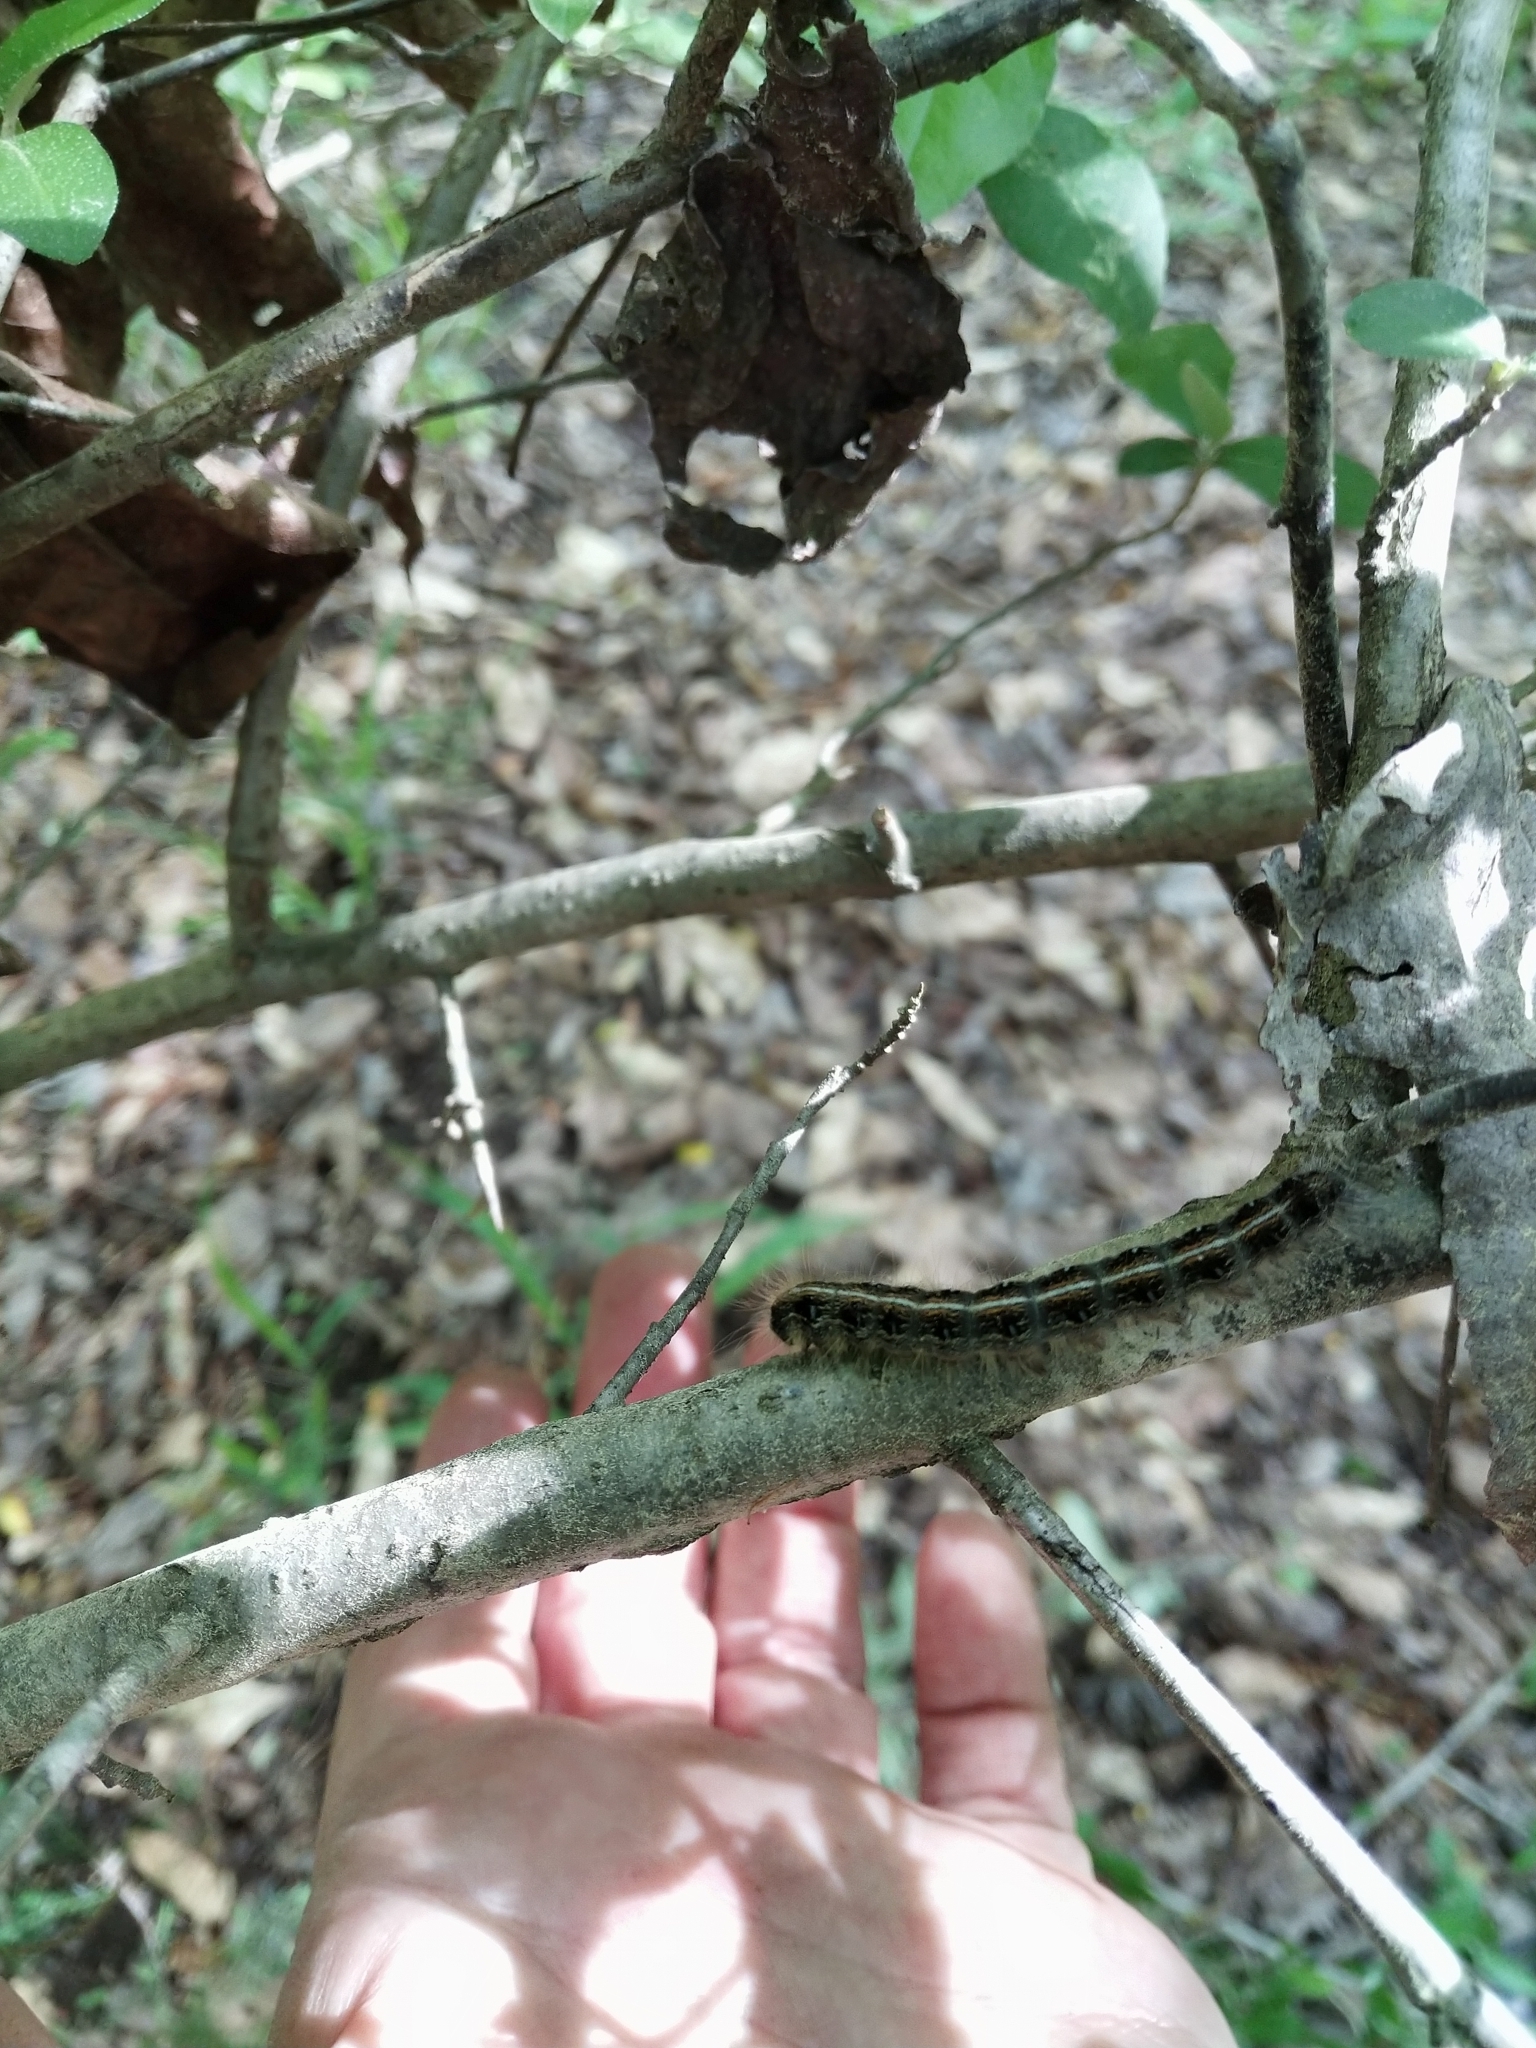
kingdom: Animalia
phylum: Arthropoda
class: Insecta
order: Lepidoptera
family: Lasiocampidae
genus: Malacosoma
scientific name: Malacosoma americana
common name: Eastern tent caterpillar moth
